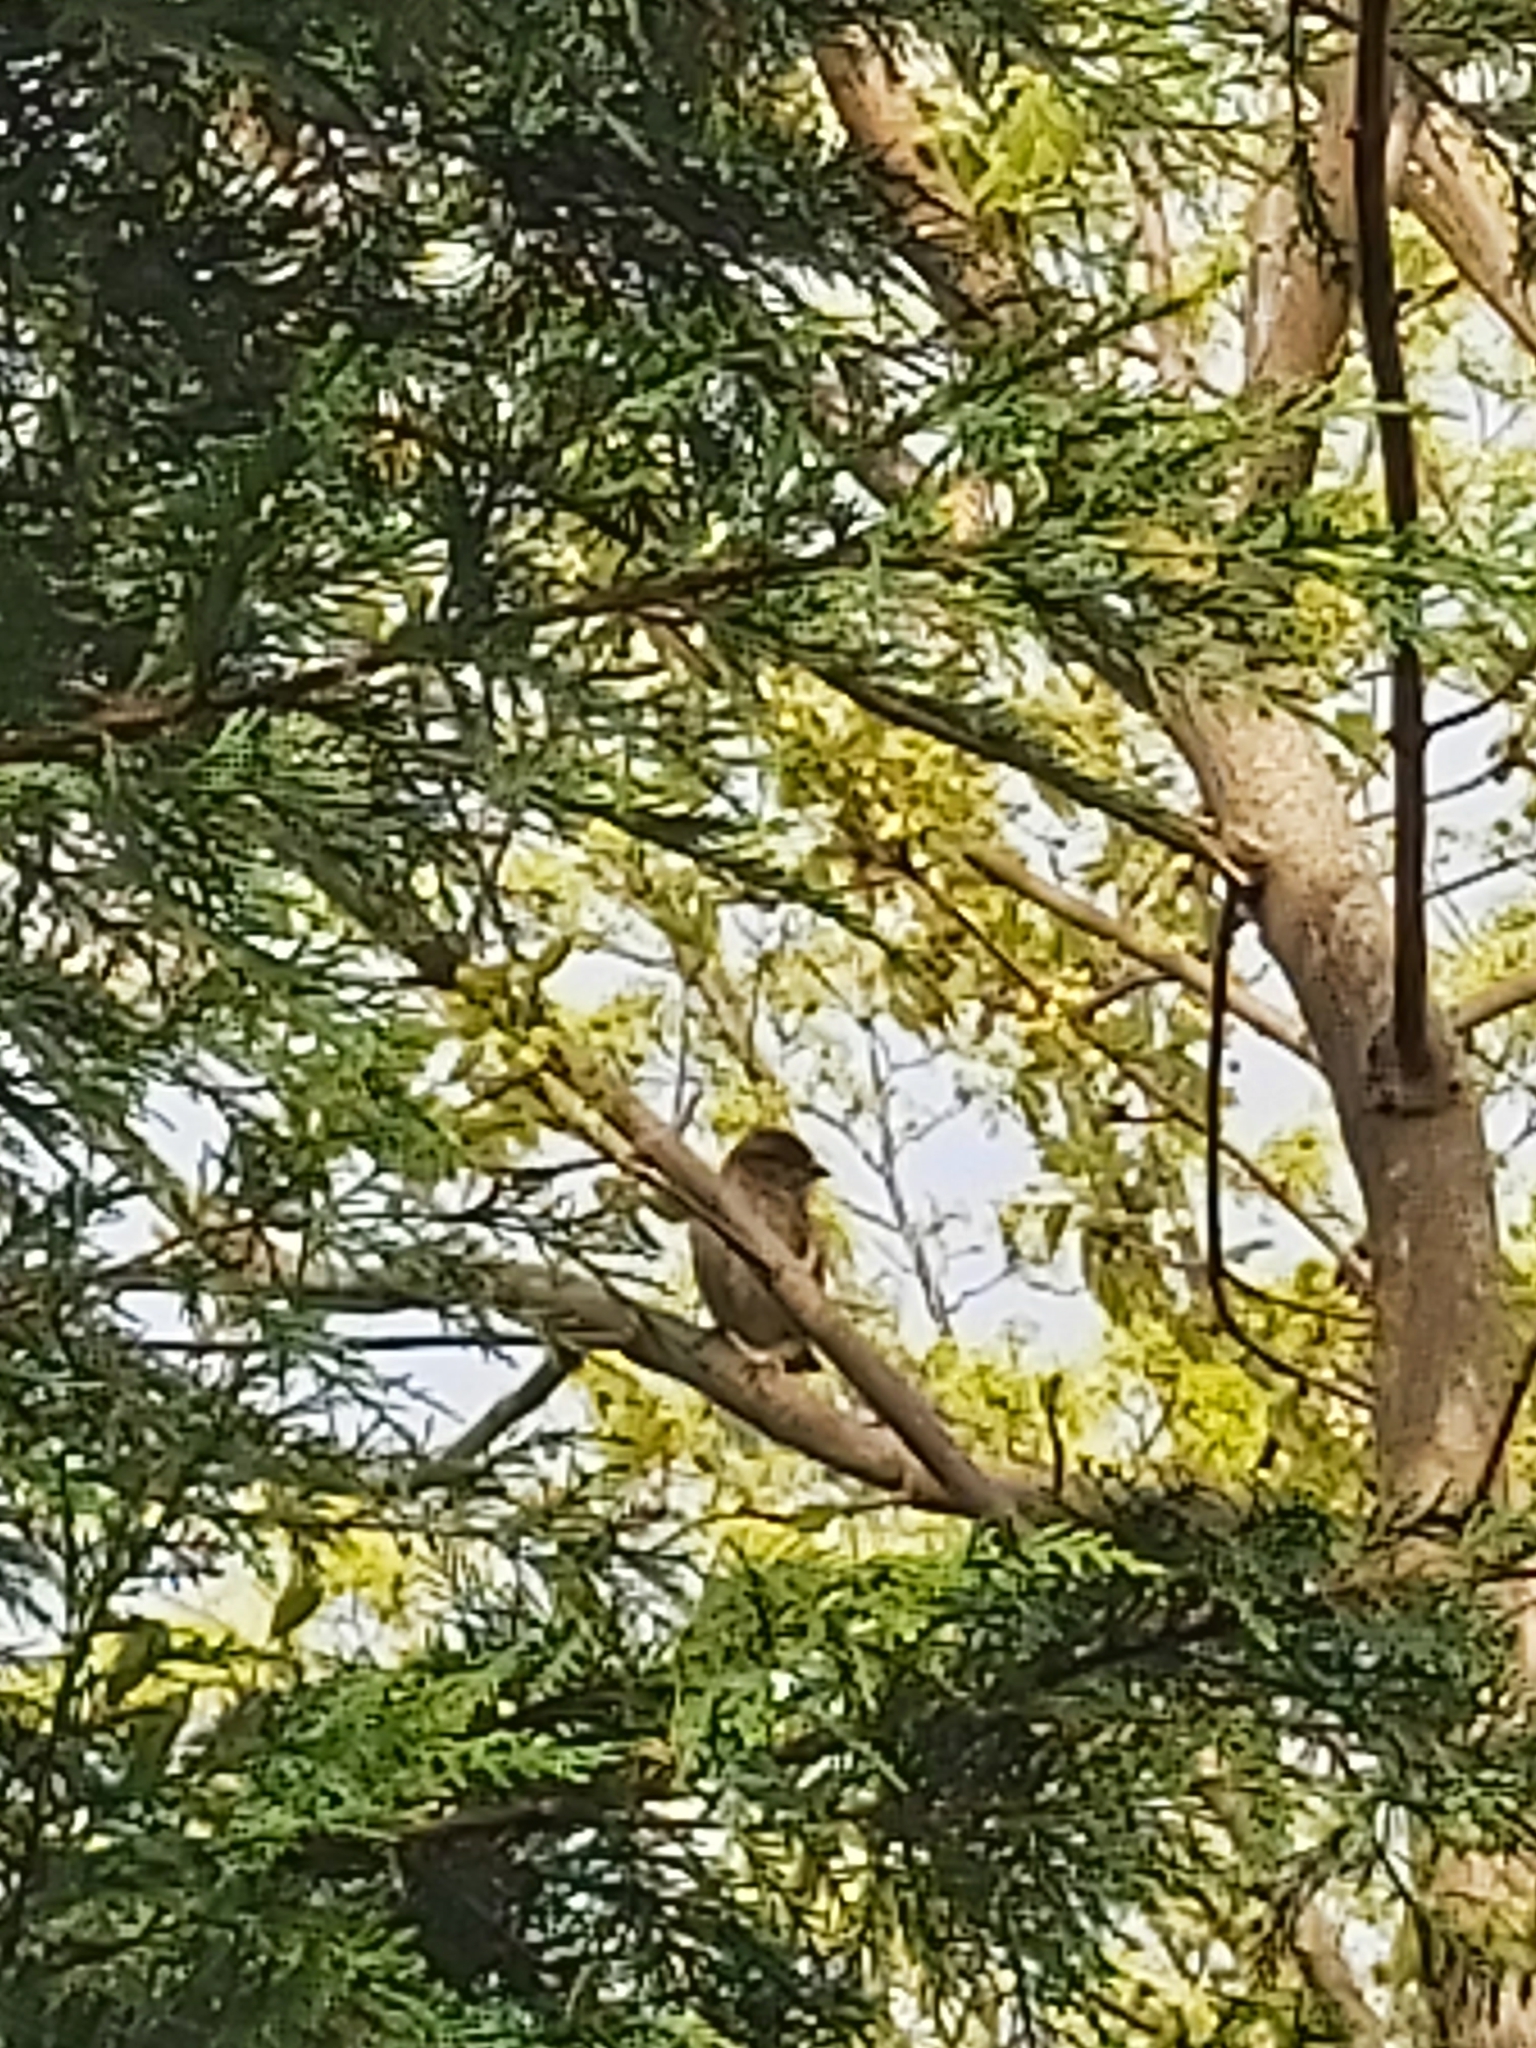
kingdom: Animalia
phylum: Chordata
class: Aves
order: Passeriformes
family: Passeridae
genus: Passer
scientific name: Passer domesticus
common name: House sparrow
